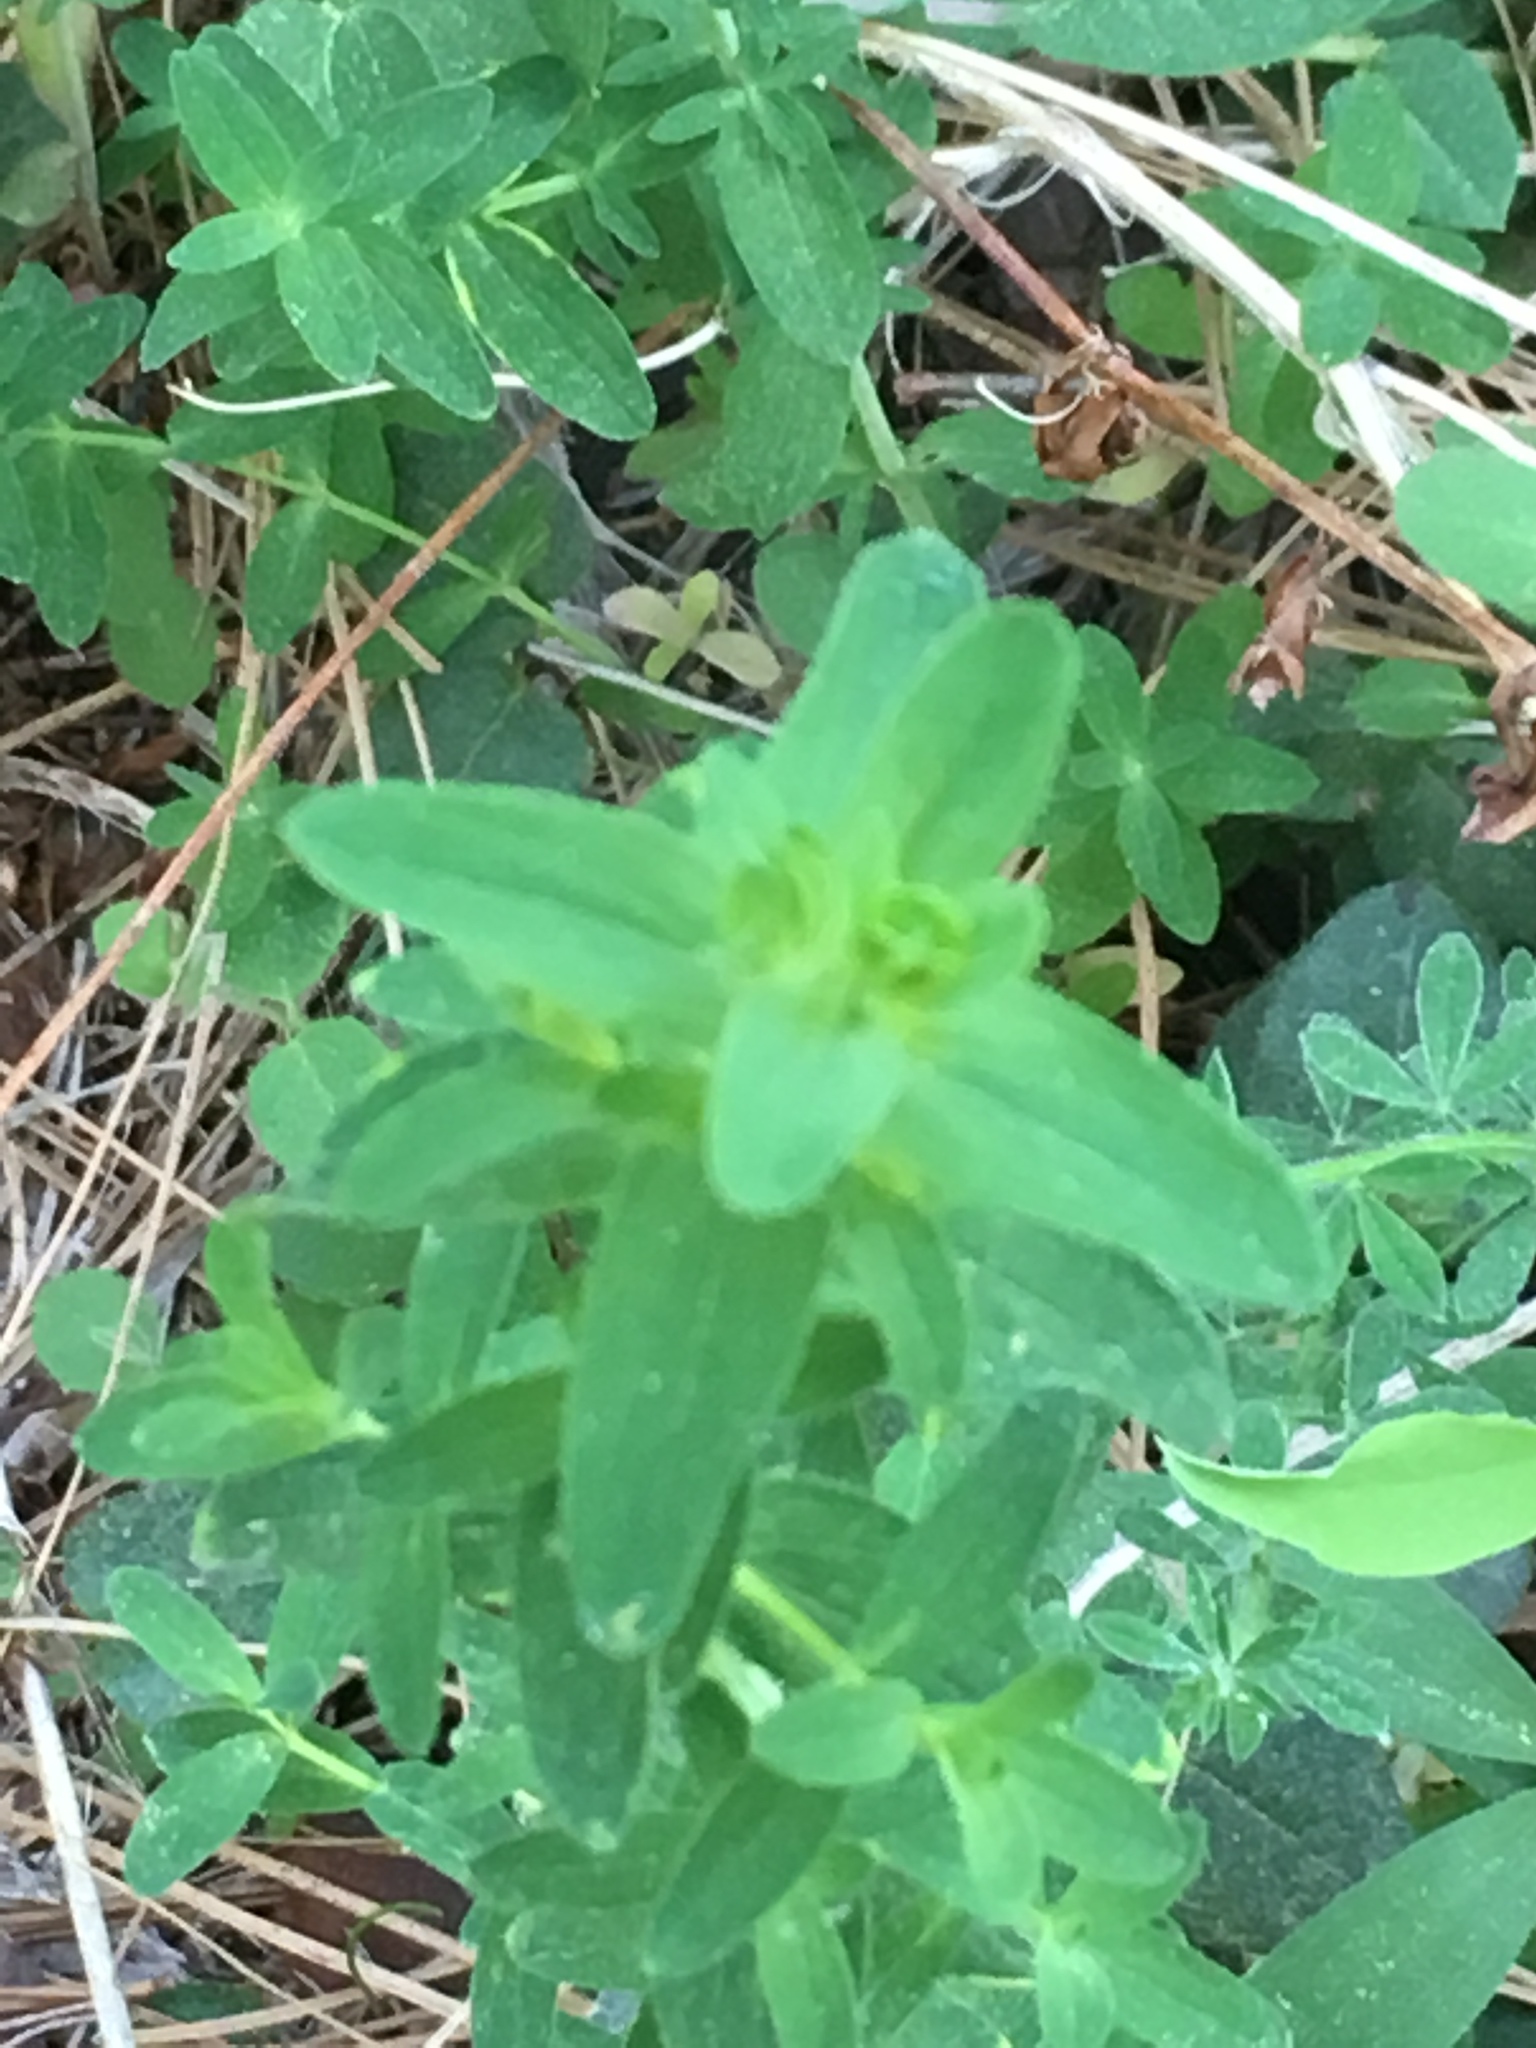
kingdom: Plantae
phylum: Tracheophyta
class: Magnoliopsida
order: Malpighiales
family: Hypericaceae
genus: Hypericum
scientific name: Hypericum perforatum
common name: Common st. johnswort
